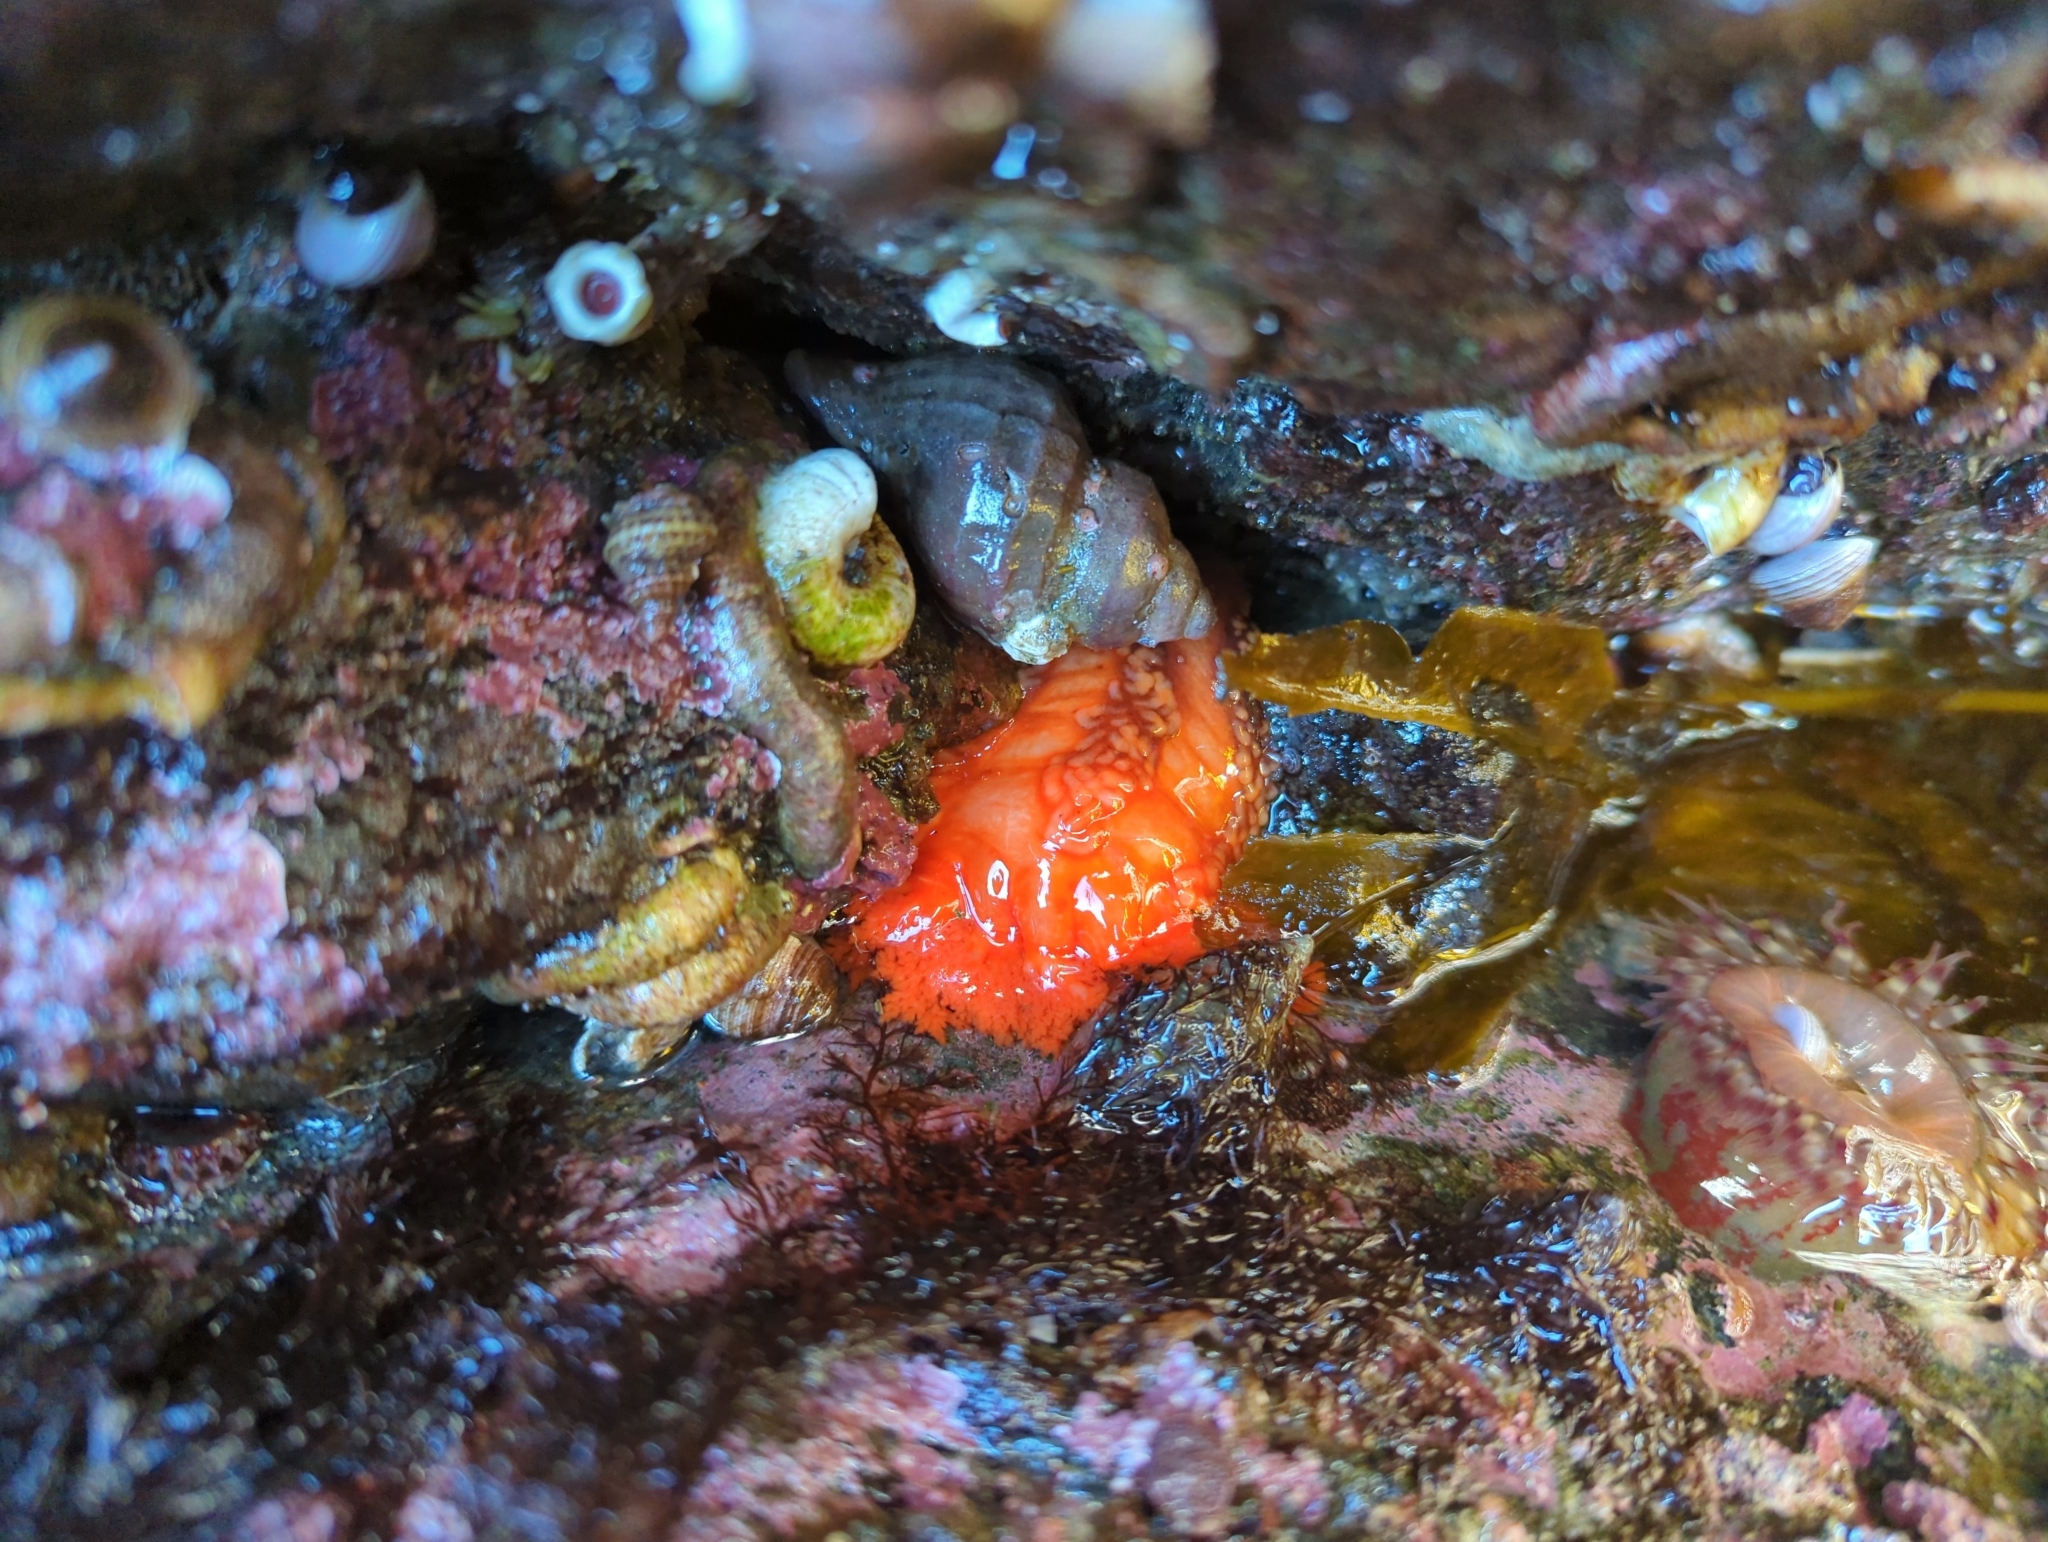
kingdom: Animalia
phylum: Echinodermata
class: Holothuroidea
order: Dendrochirotida
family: Cucumariidae
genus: Cucumaria
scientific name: Cucumaria miniata
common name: Orange sea cucumber
